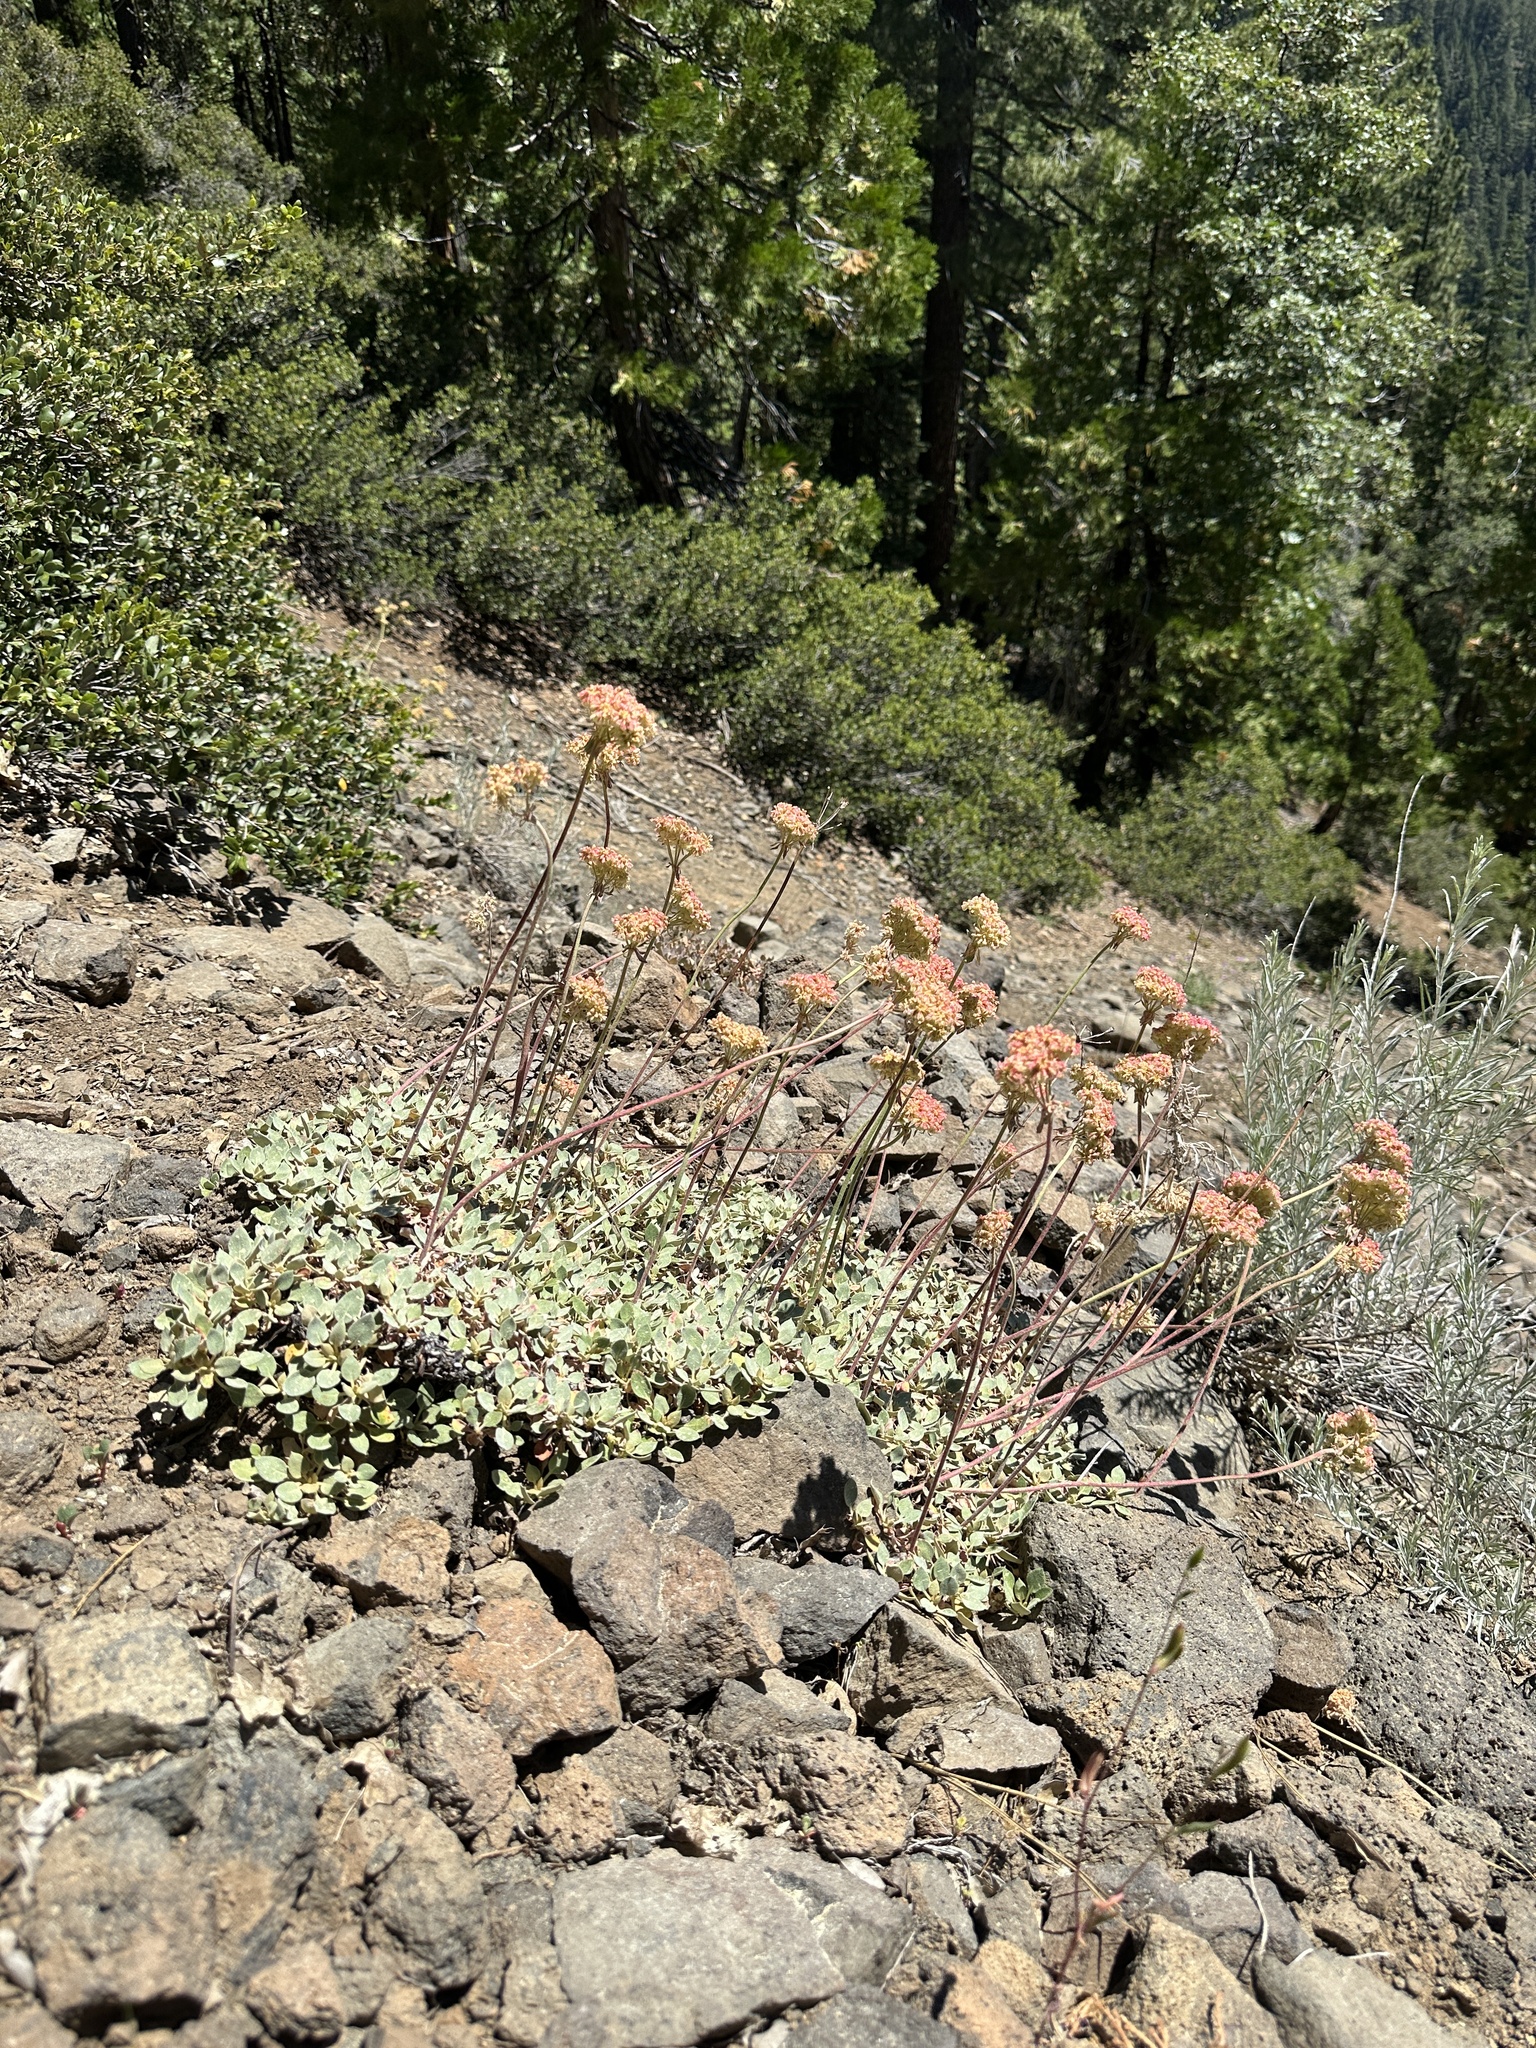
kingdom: Plantae
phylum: Tracheophyta
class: Magnoliopsida
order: Caryophyllales
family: Polygonaceae
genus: Eriogonum
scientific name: Eriogonum ursinum
